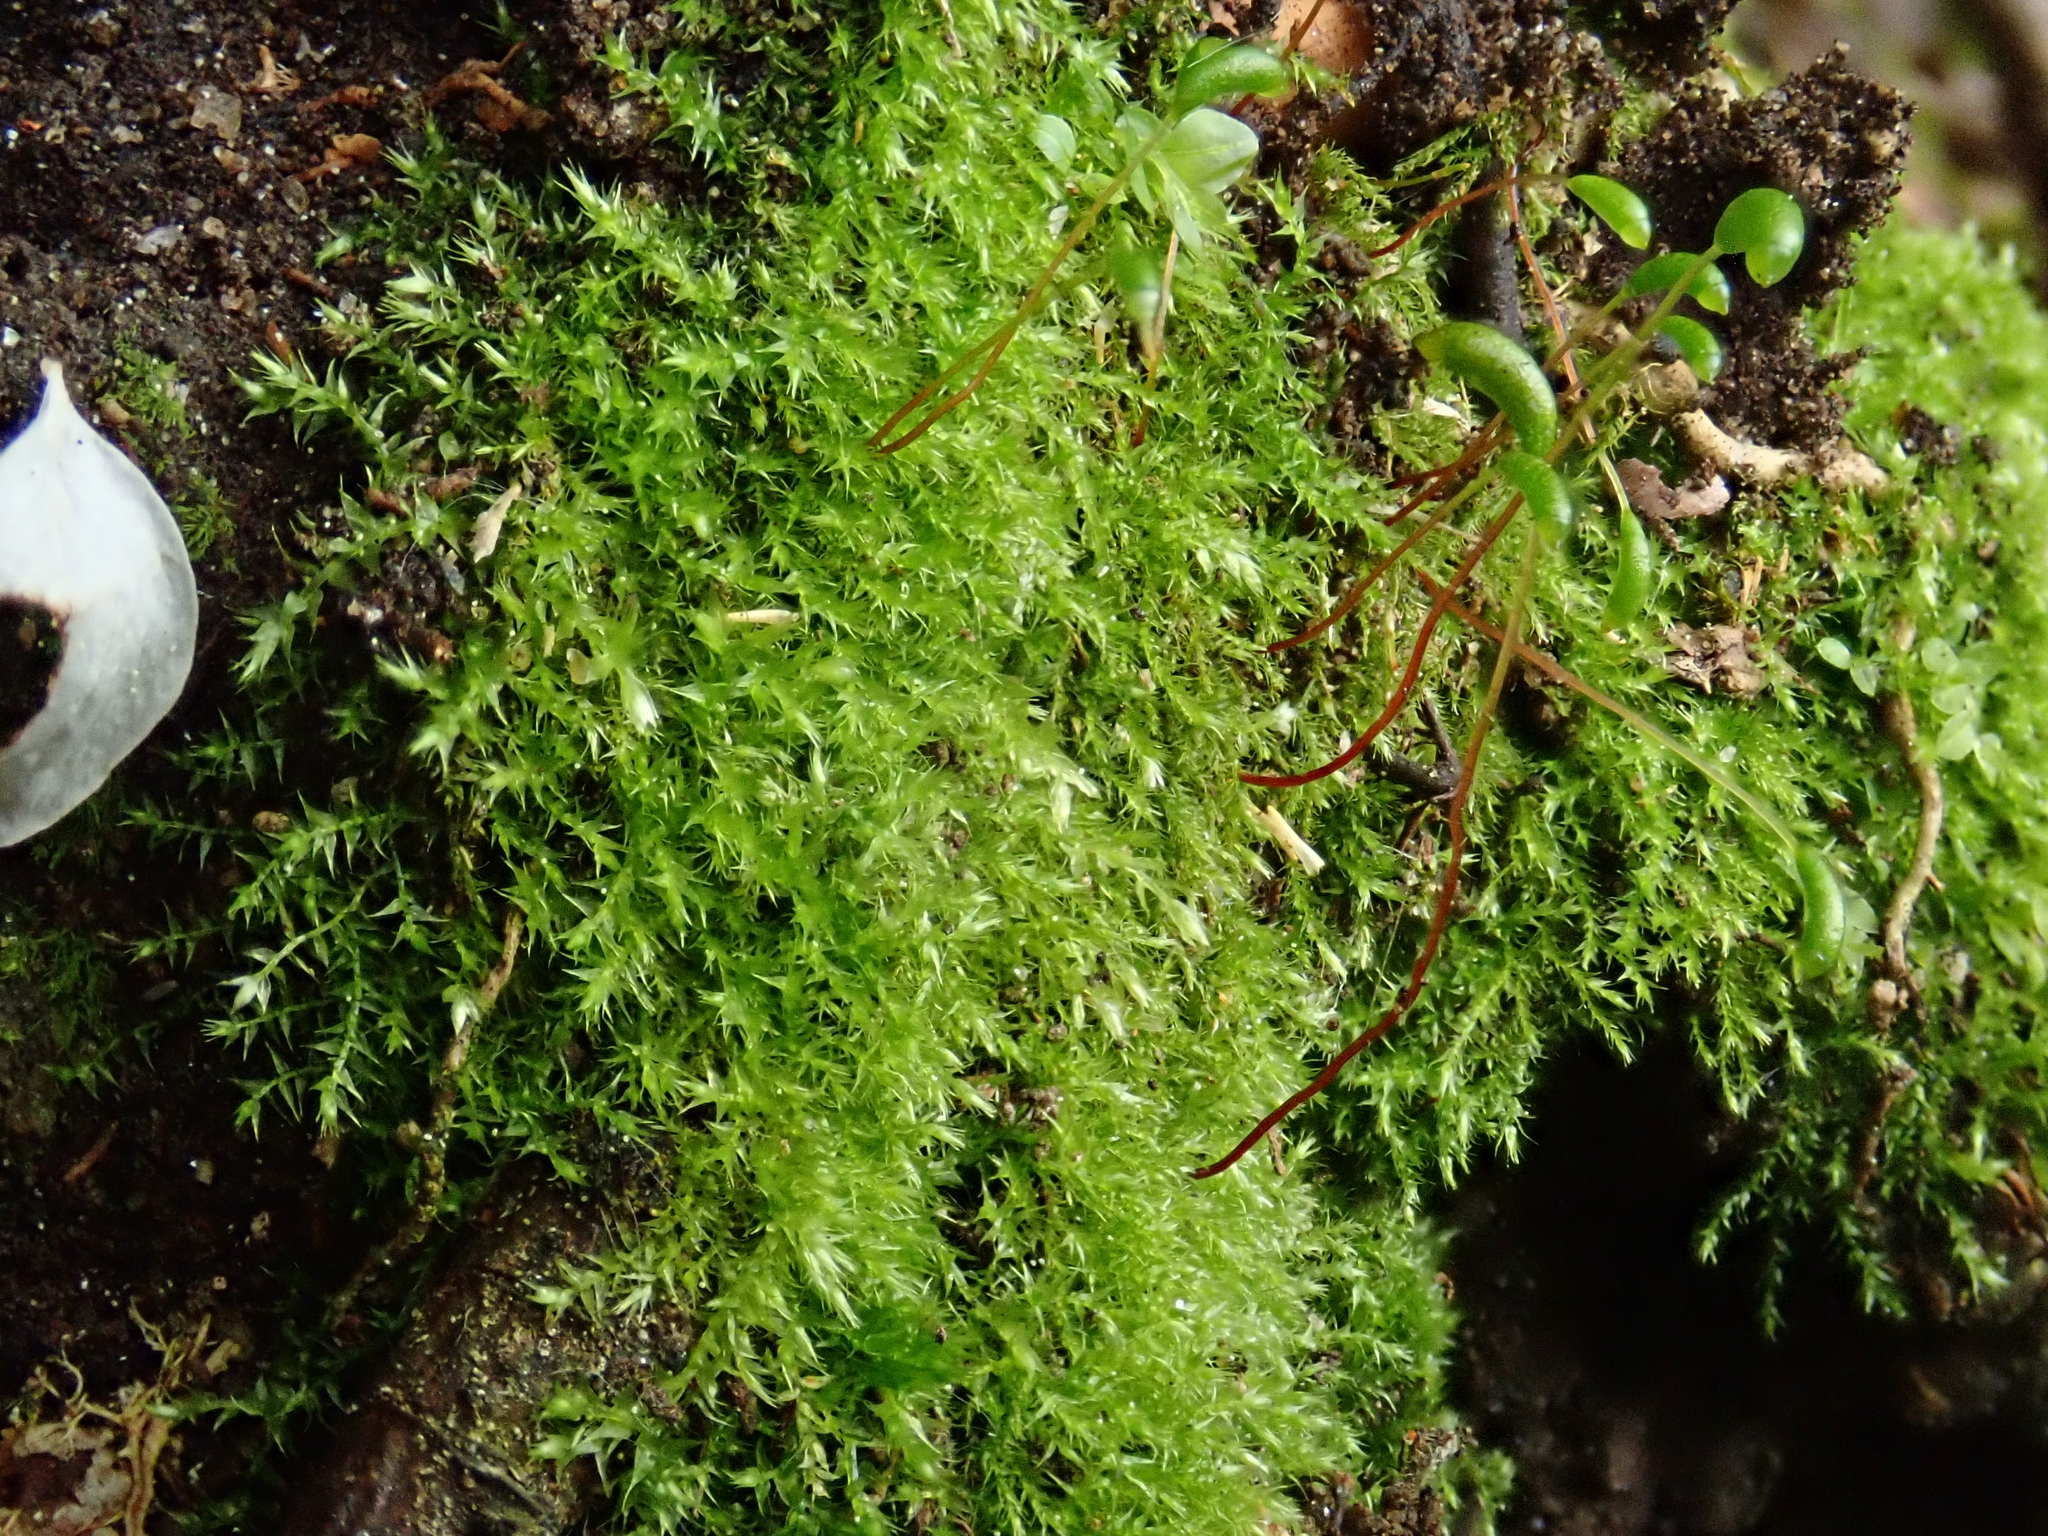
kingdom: Plantae
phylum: Bryophyta
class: Bryopsida
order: Hypnales
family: Amblystegiaceae
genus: Amblystegium
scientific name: Amblystegium serpens
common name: Jurkatzka's feather moss
